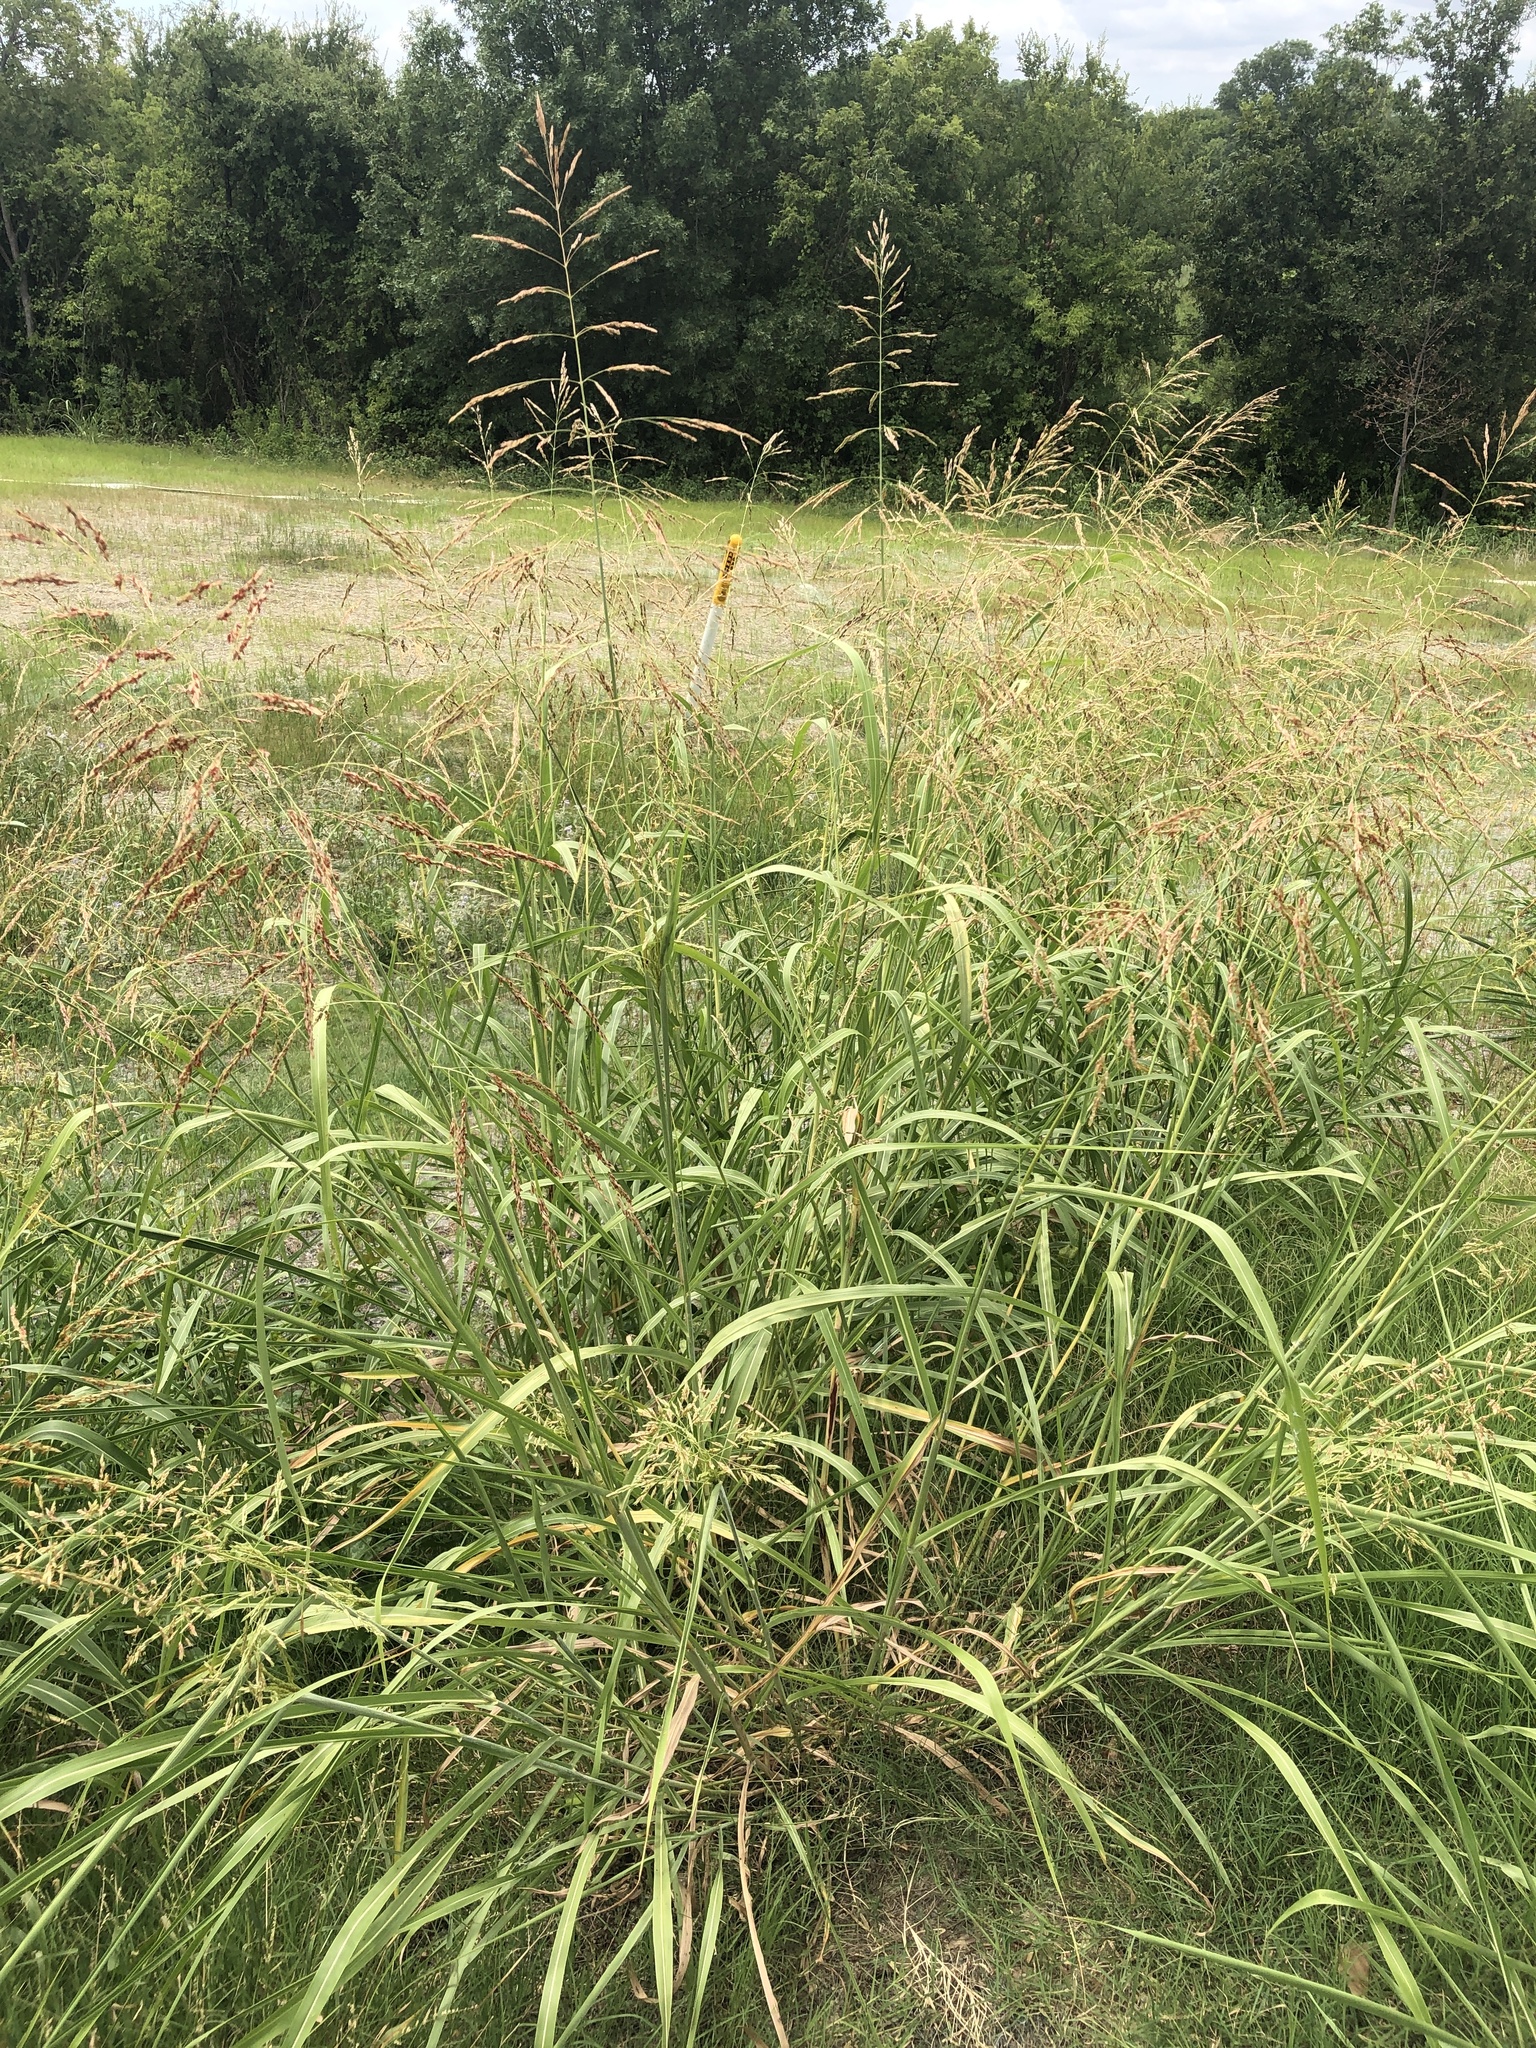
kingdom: Plantae
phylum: Tracheophyta
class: Liliopsida
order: Poales
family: Poaceae
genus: Sorghum
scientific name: Sorghum halepense
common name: Johnson-grass
